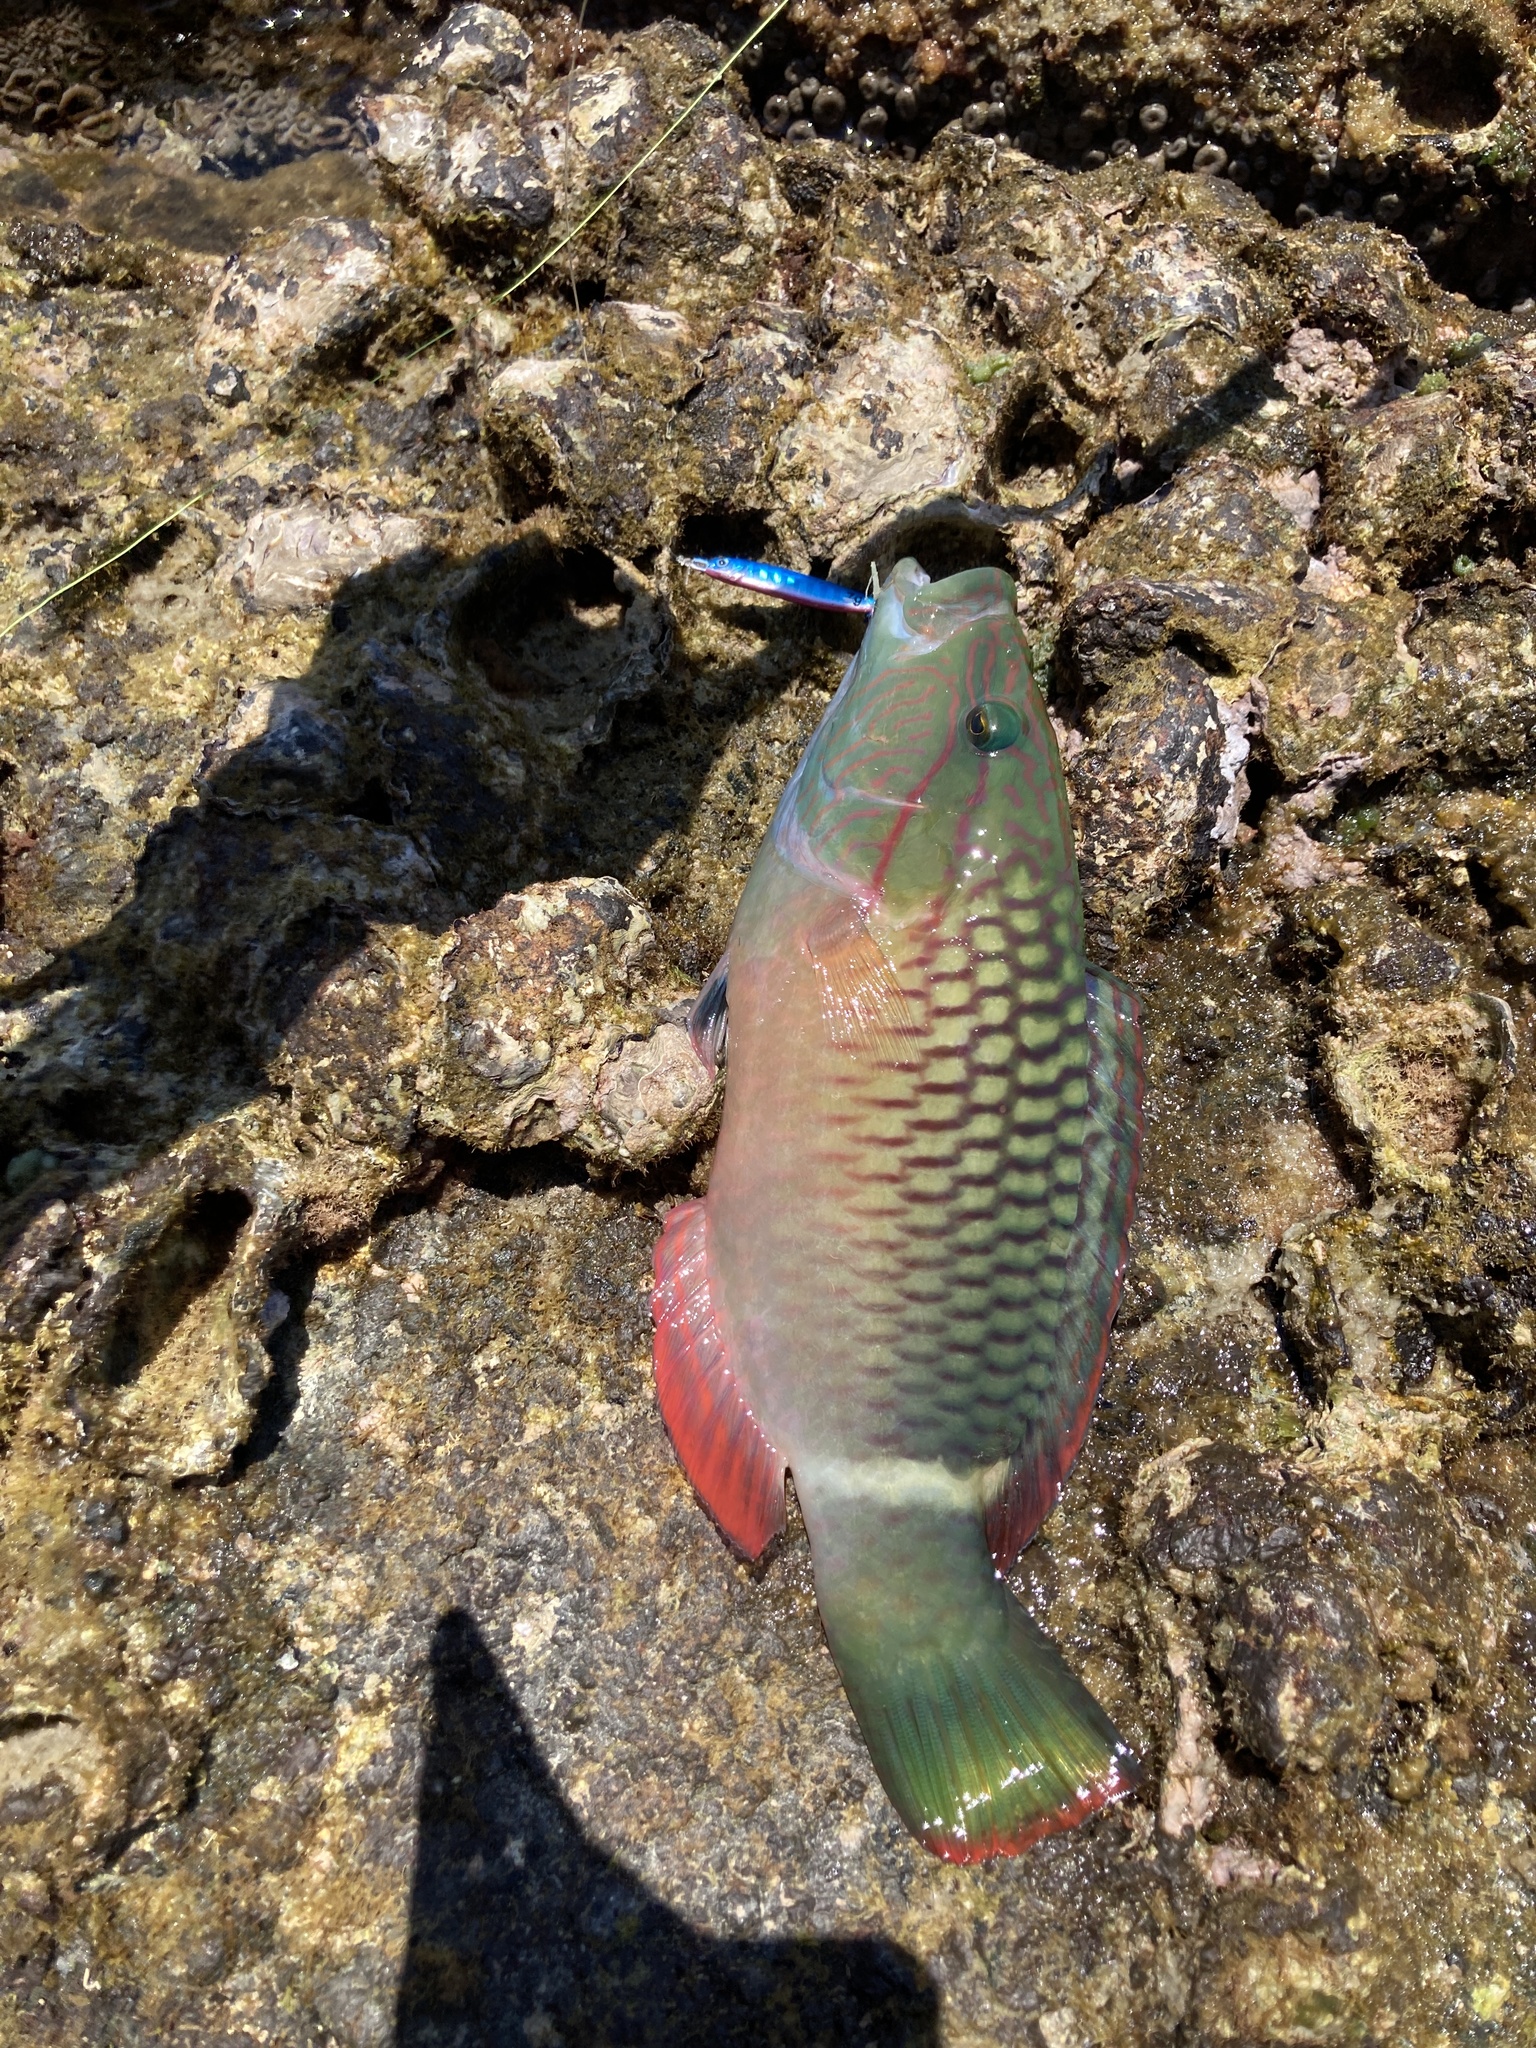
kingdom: Animalia
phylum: Chordata
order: Perciformes
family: Labridae
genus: Oxycheilinus
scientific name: Oxycheilinus unifasciatus
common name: Ringtail maori wrasse
